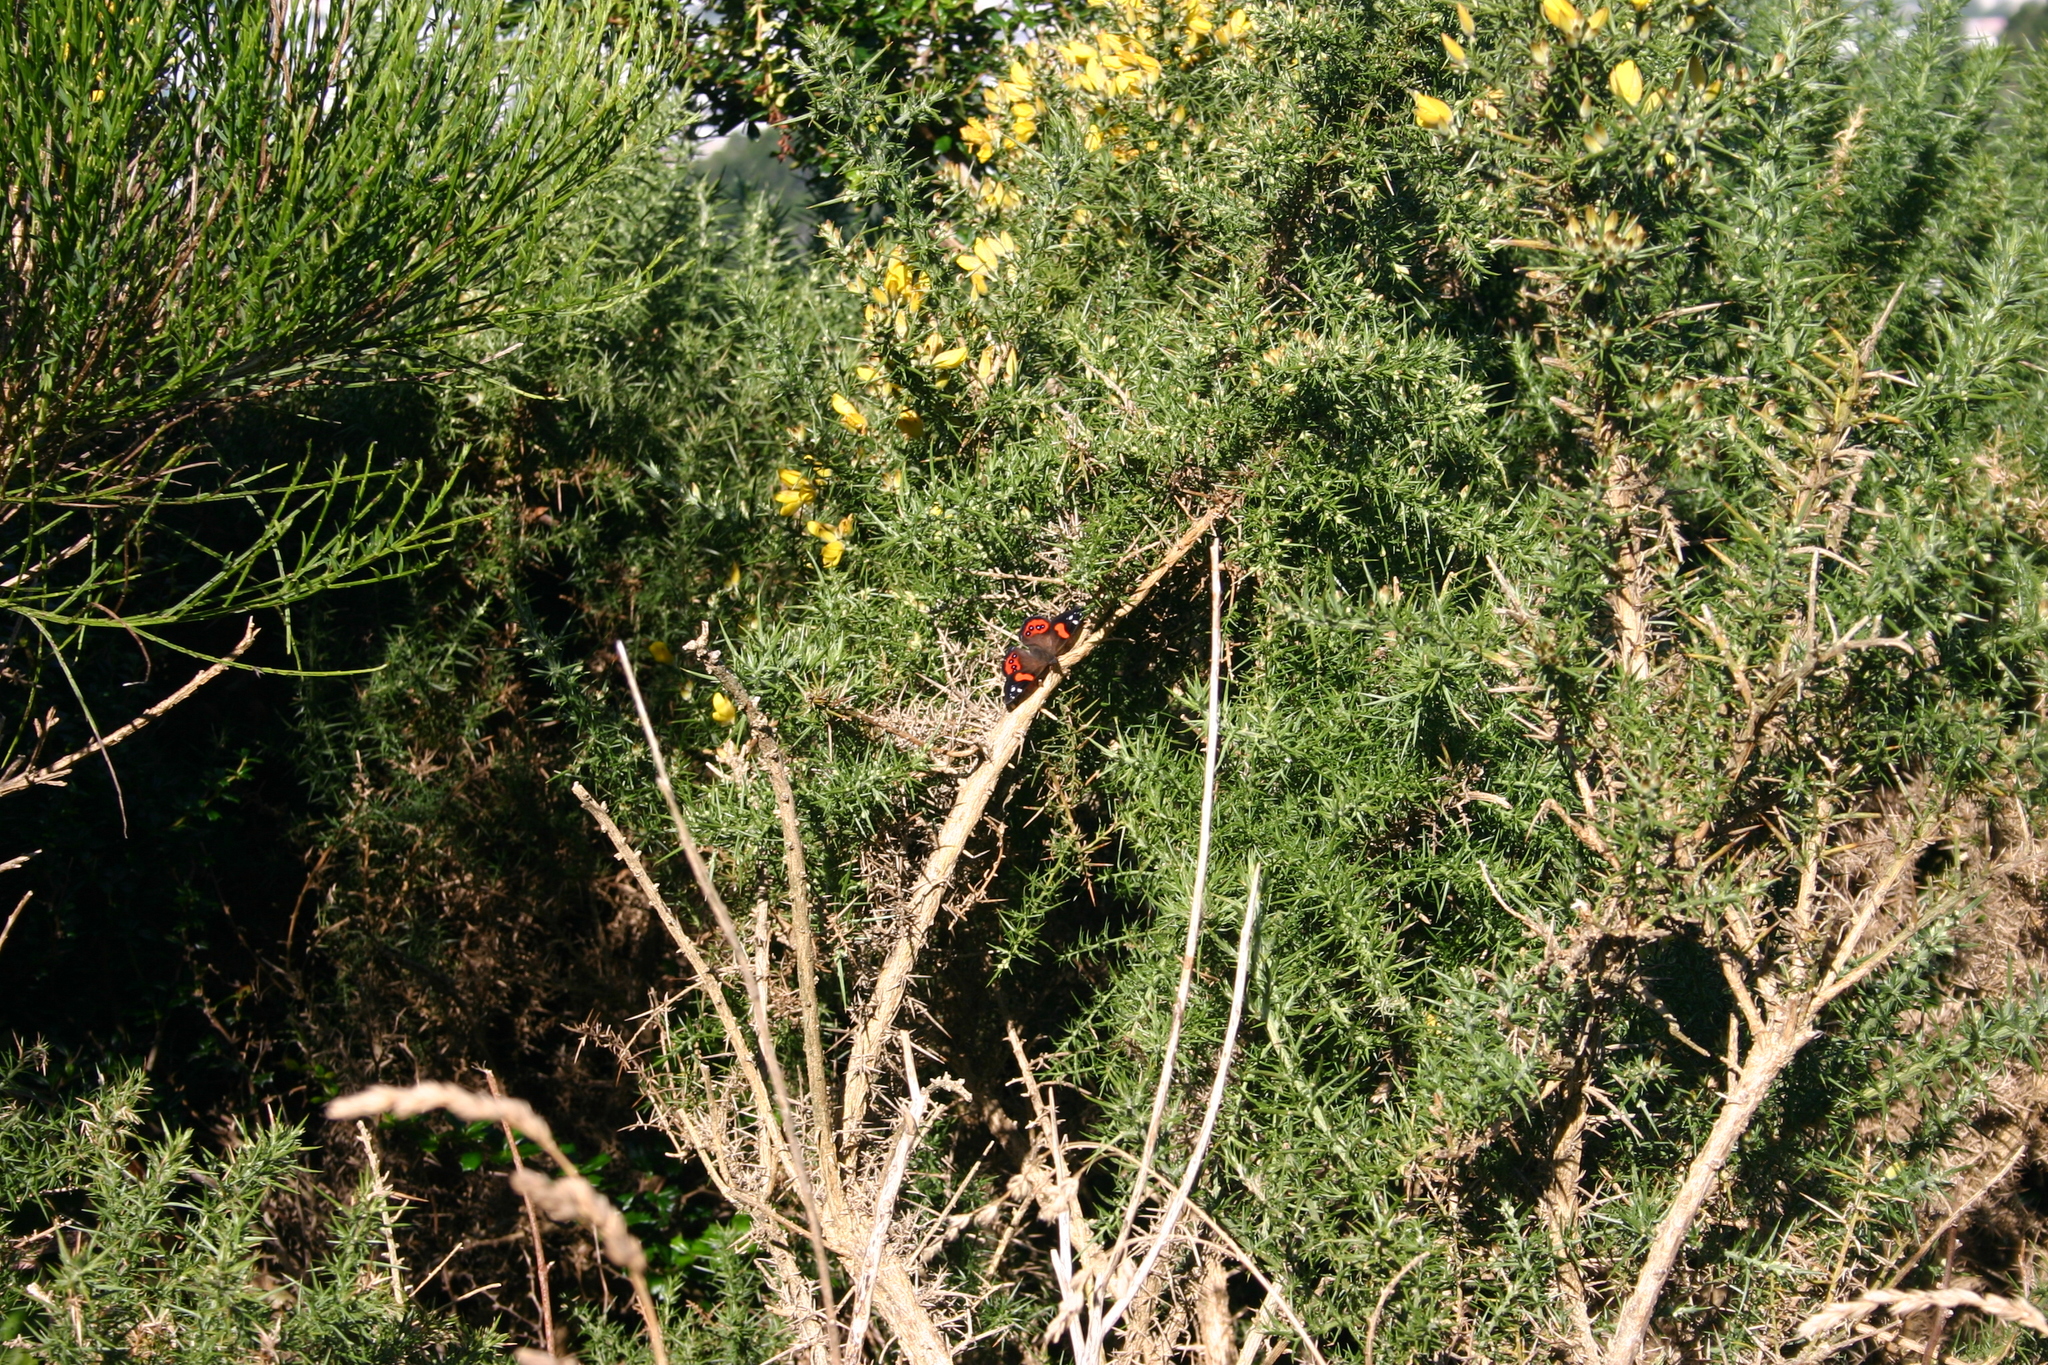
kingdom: Animalia
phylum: Arthropoda
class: Insecta
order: Lepidoptera
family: Nymphalidae
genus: Vanessa
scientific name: Vanessa gonerilla
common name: New zealand red admiral
